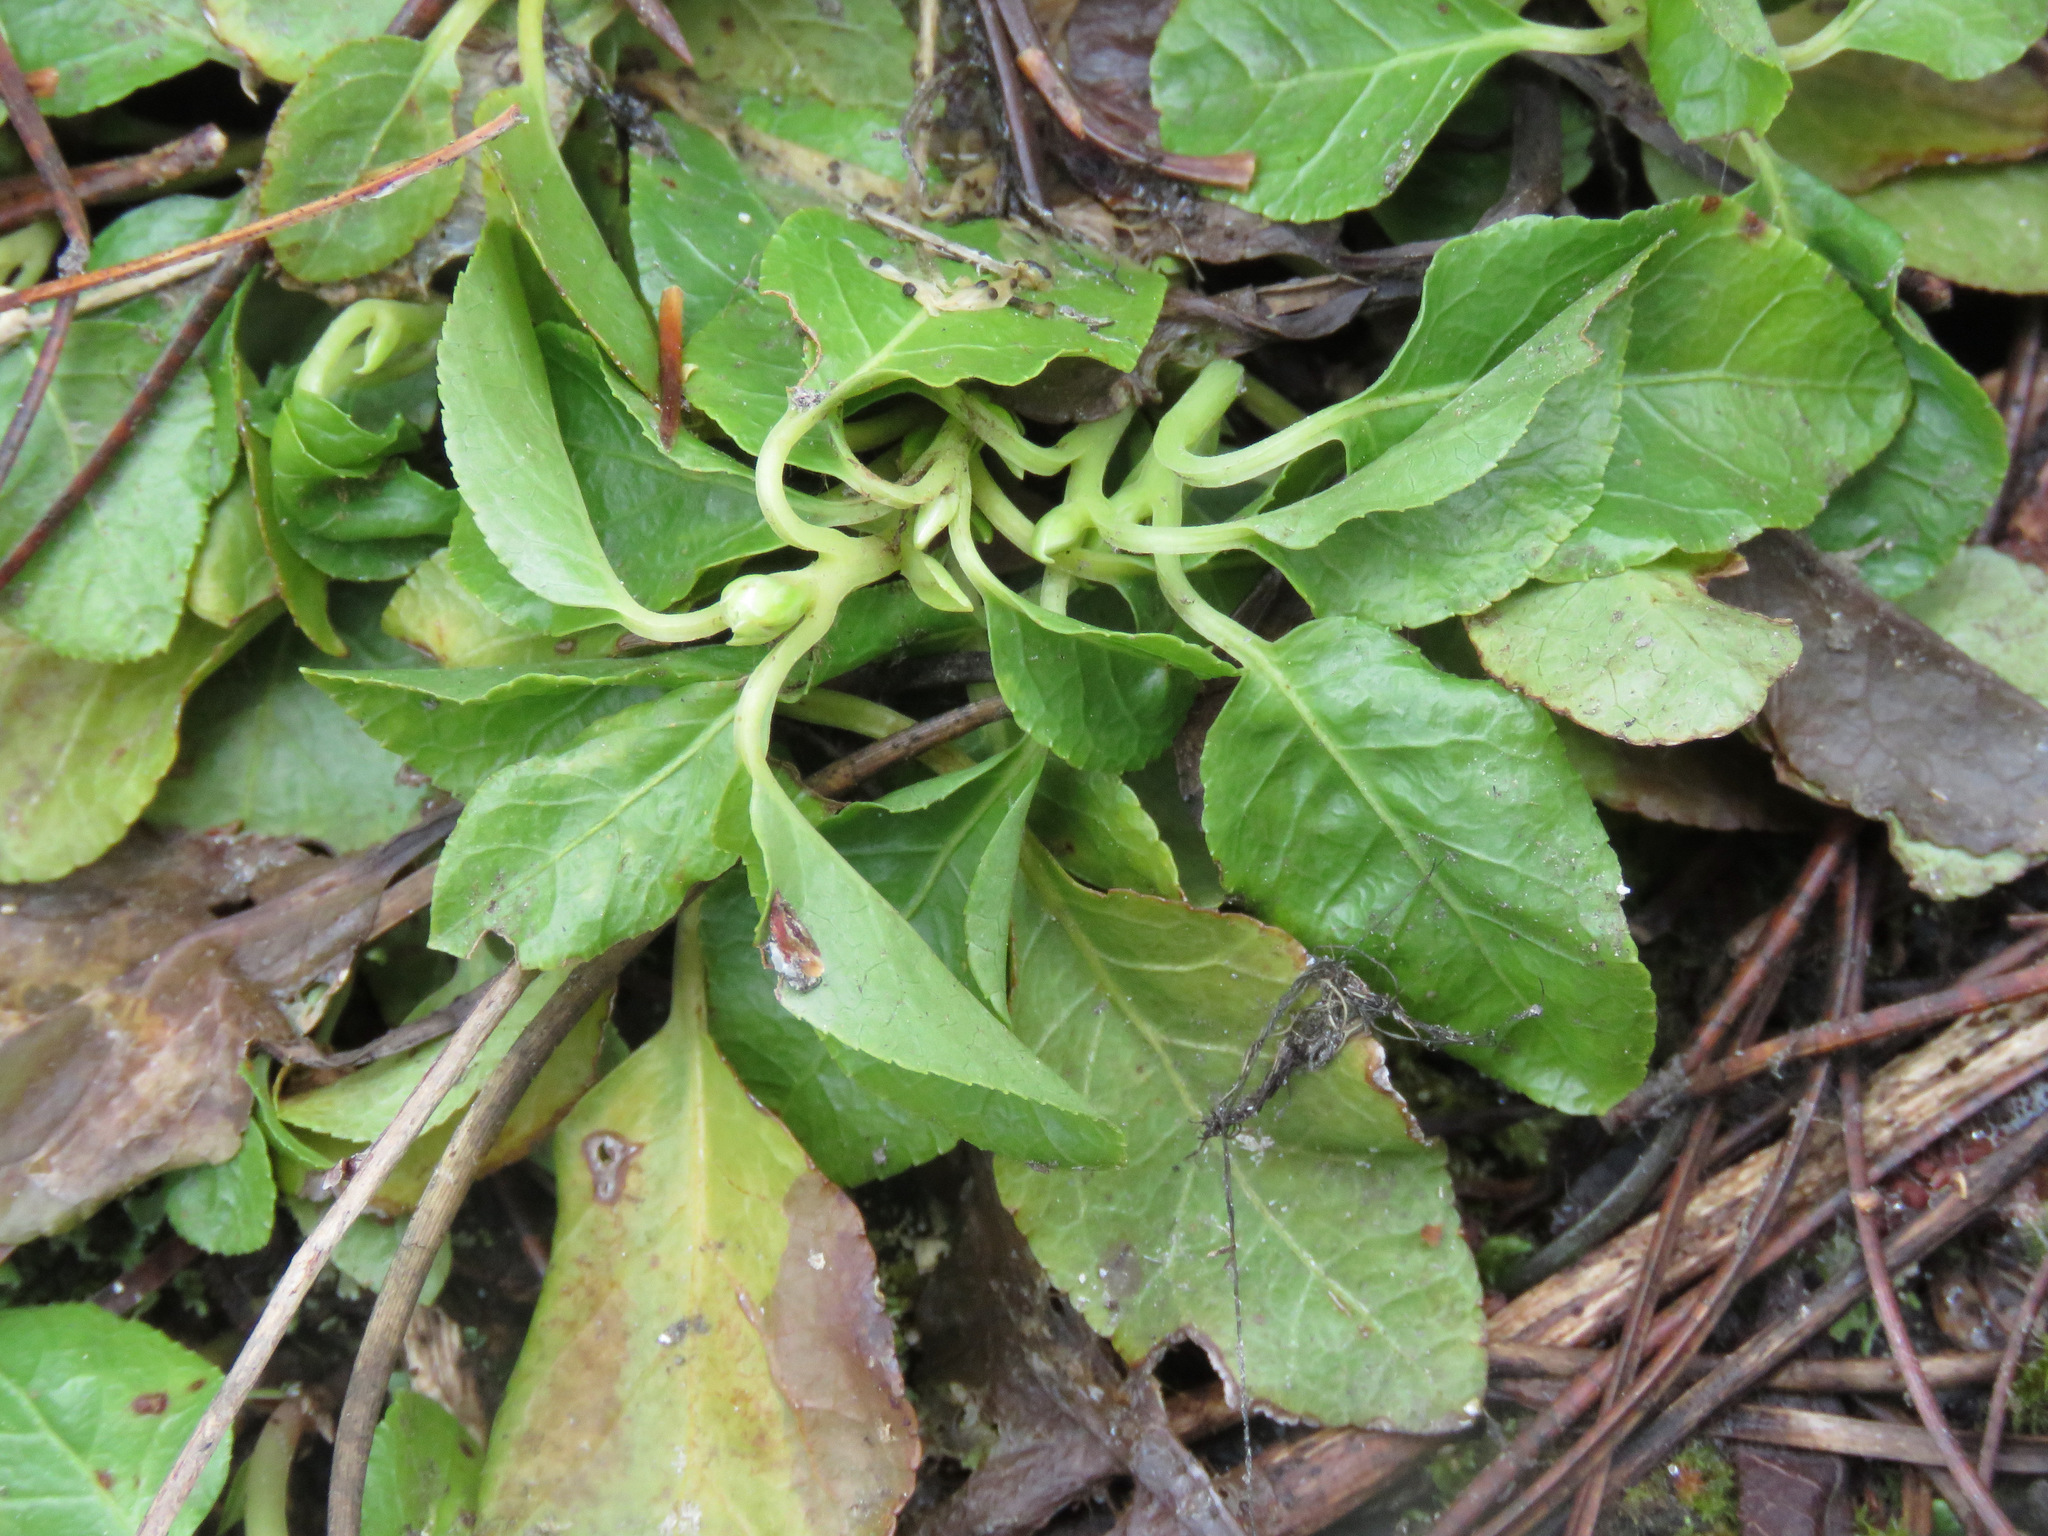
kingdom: Plantae
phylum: Tracheophyta
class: Magnoliopsida
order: Ericales
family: Ericaceae
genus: Orthilia
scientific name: Orthilia secunda
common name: One-sided orthilia
